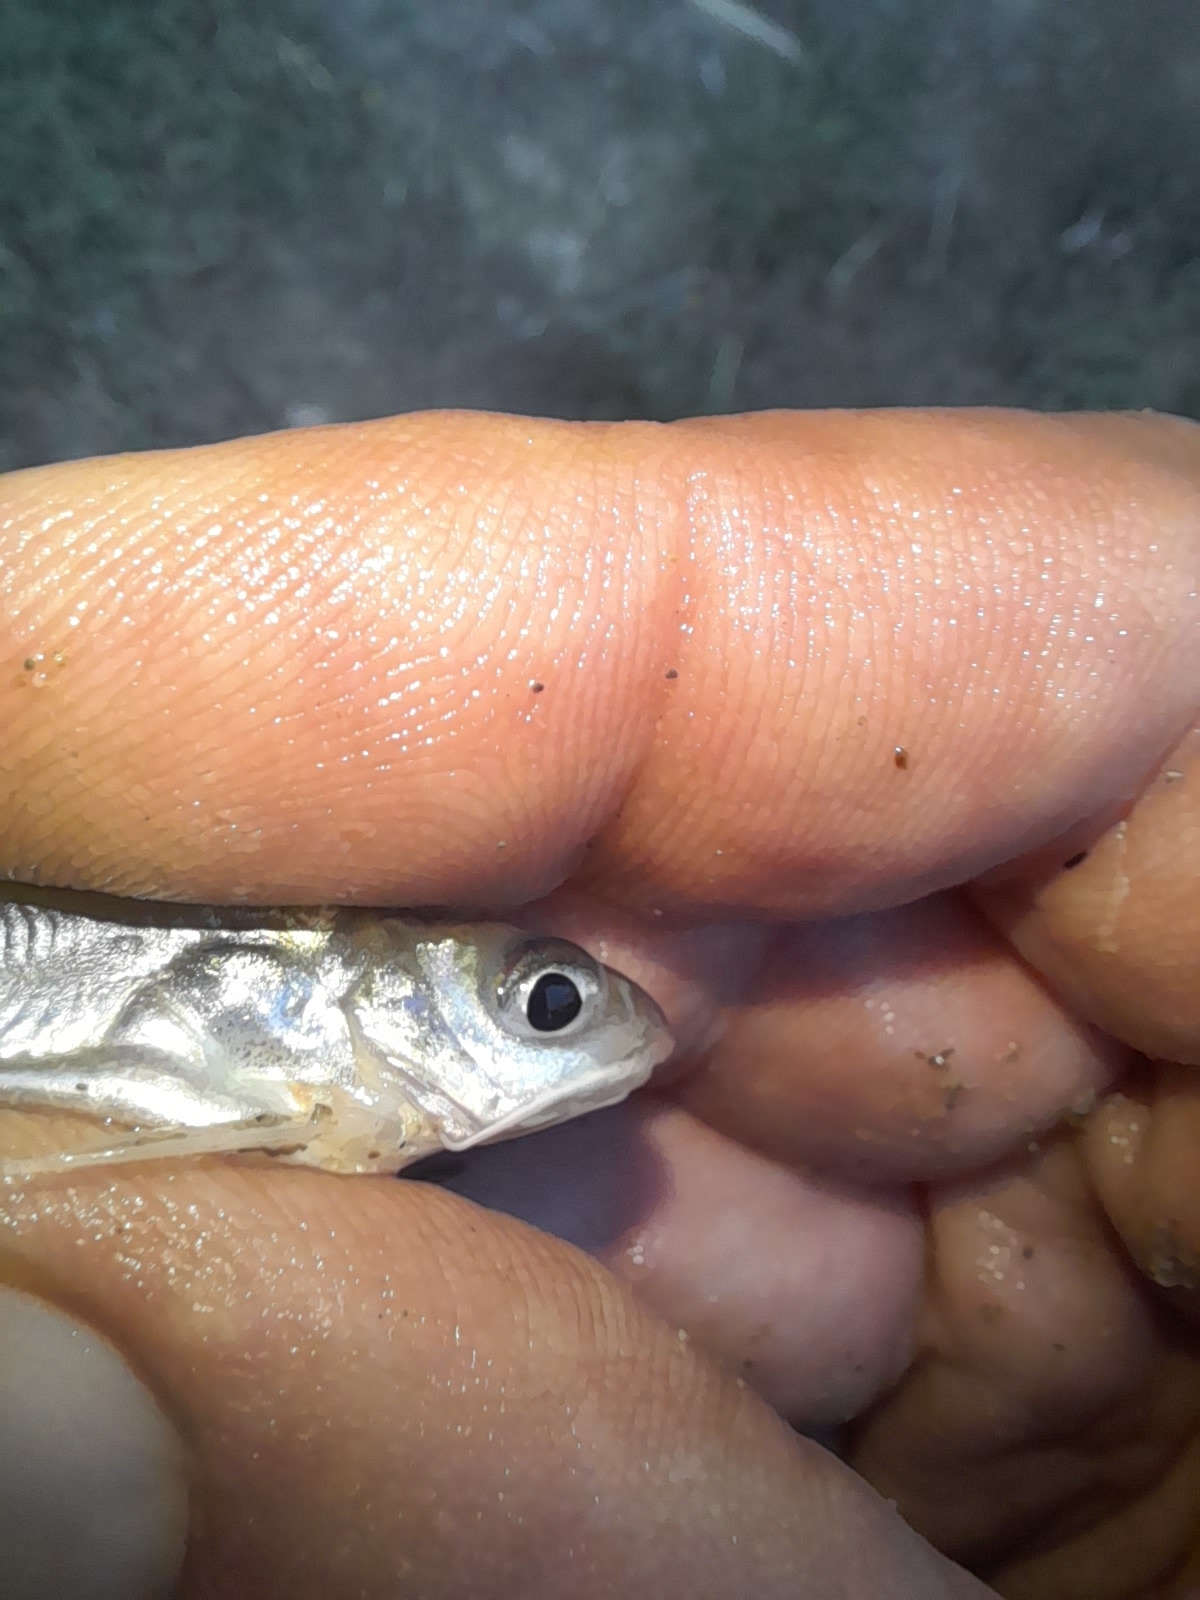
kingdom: Animalia
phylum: Chordata
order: Siluriformes
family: Ictaluridae
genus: Ictalurus
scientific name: Ictalurus punctatus
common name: Channel catfish
